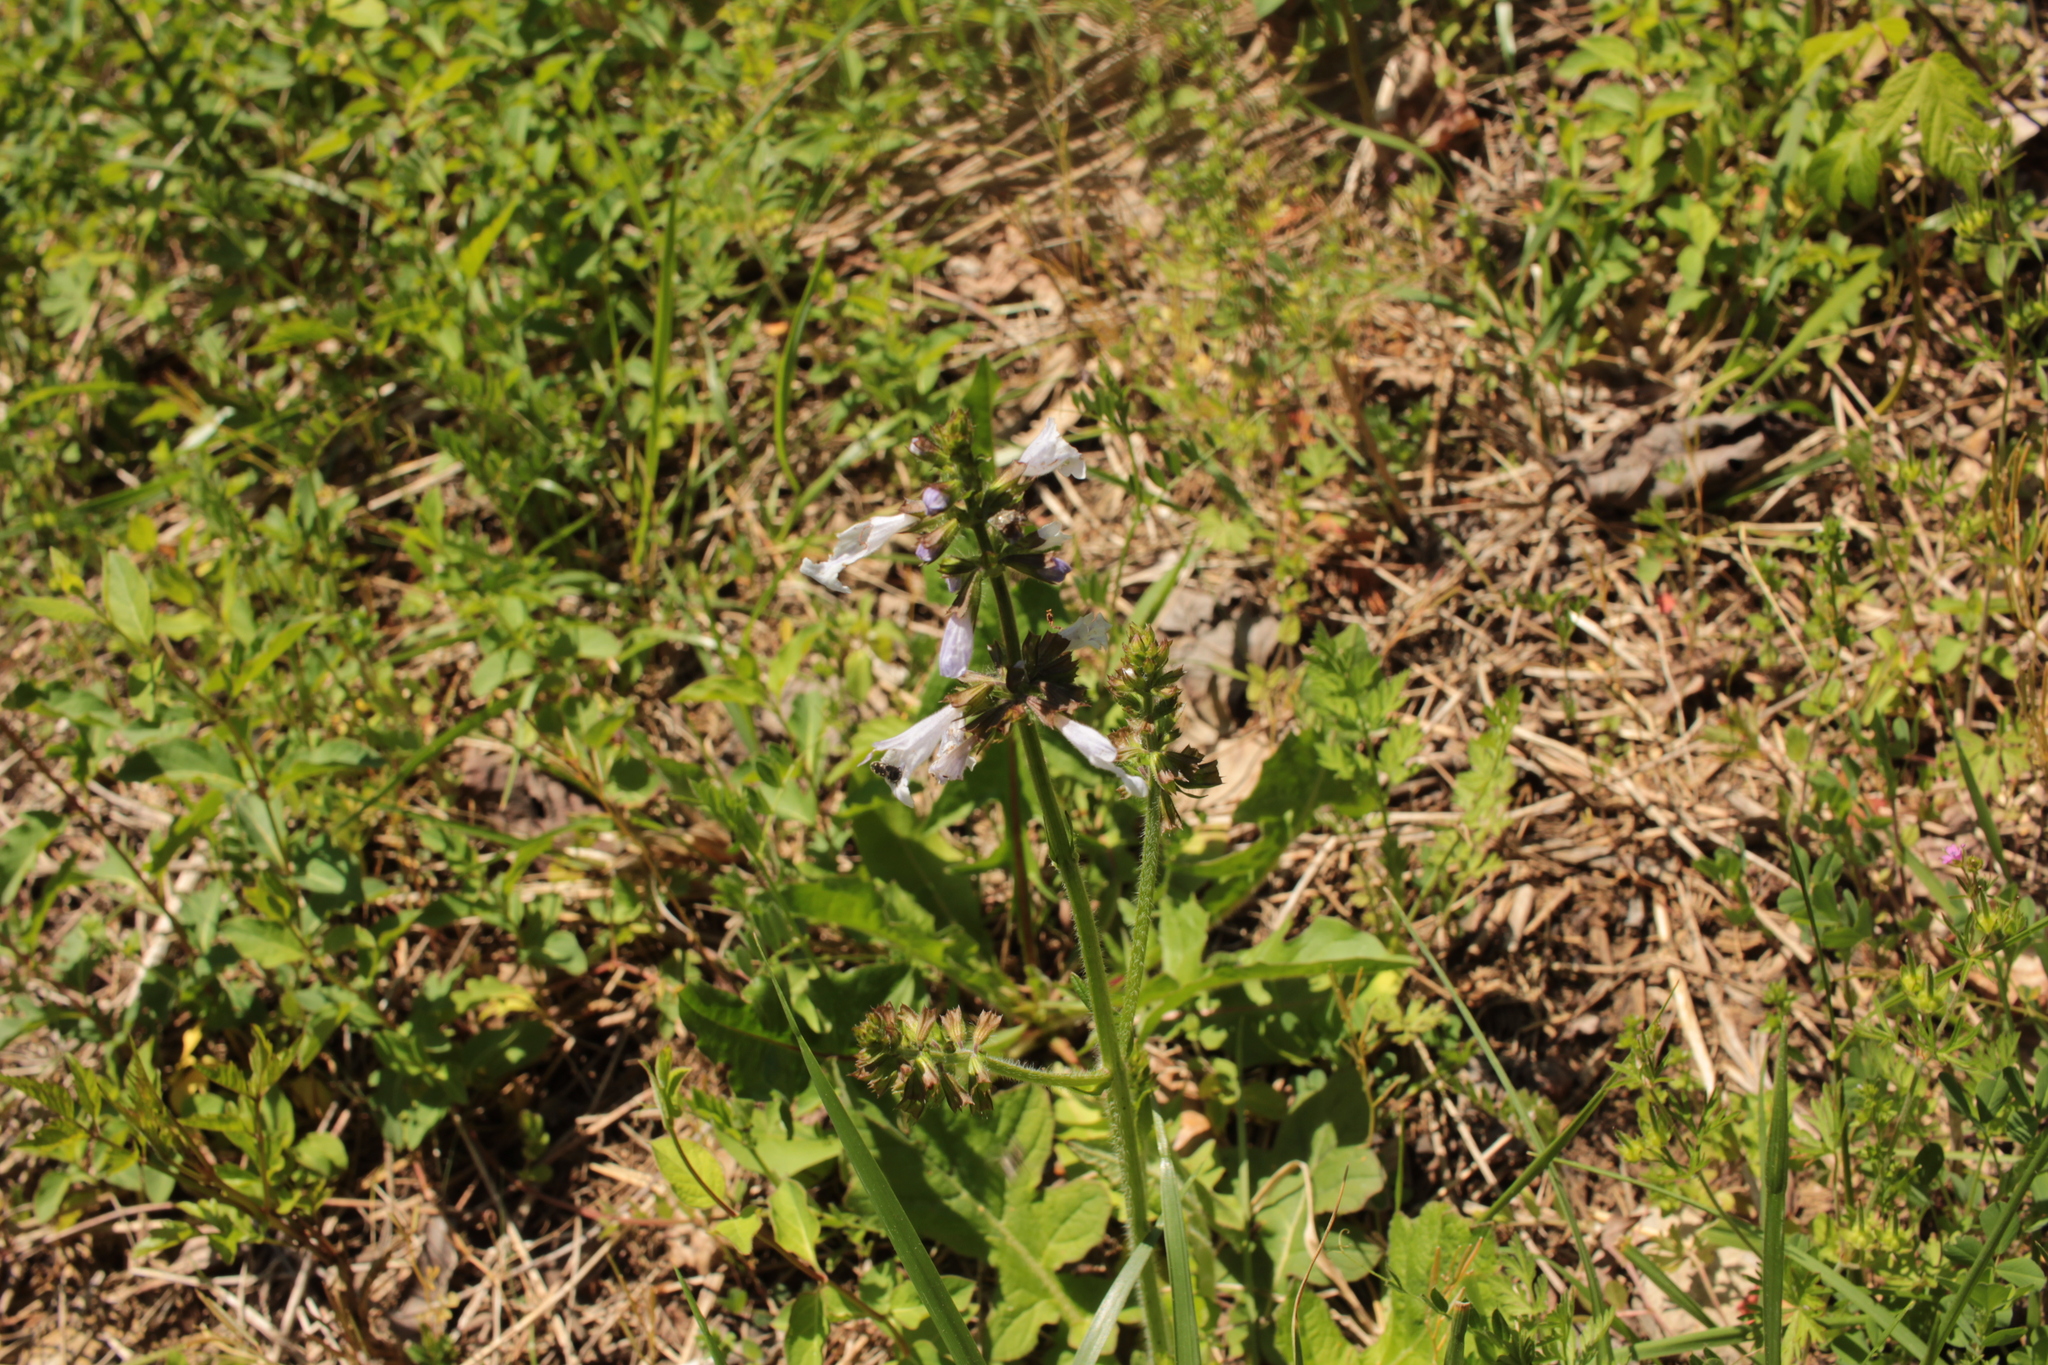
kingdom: Plantae
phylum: Tracheophyta
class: Magnoliopsida
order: Lamiales
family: Lamiaceae
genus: Salvia
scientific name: Salvia lyrata
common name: Cancerweed
